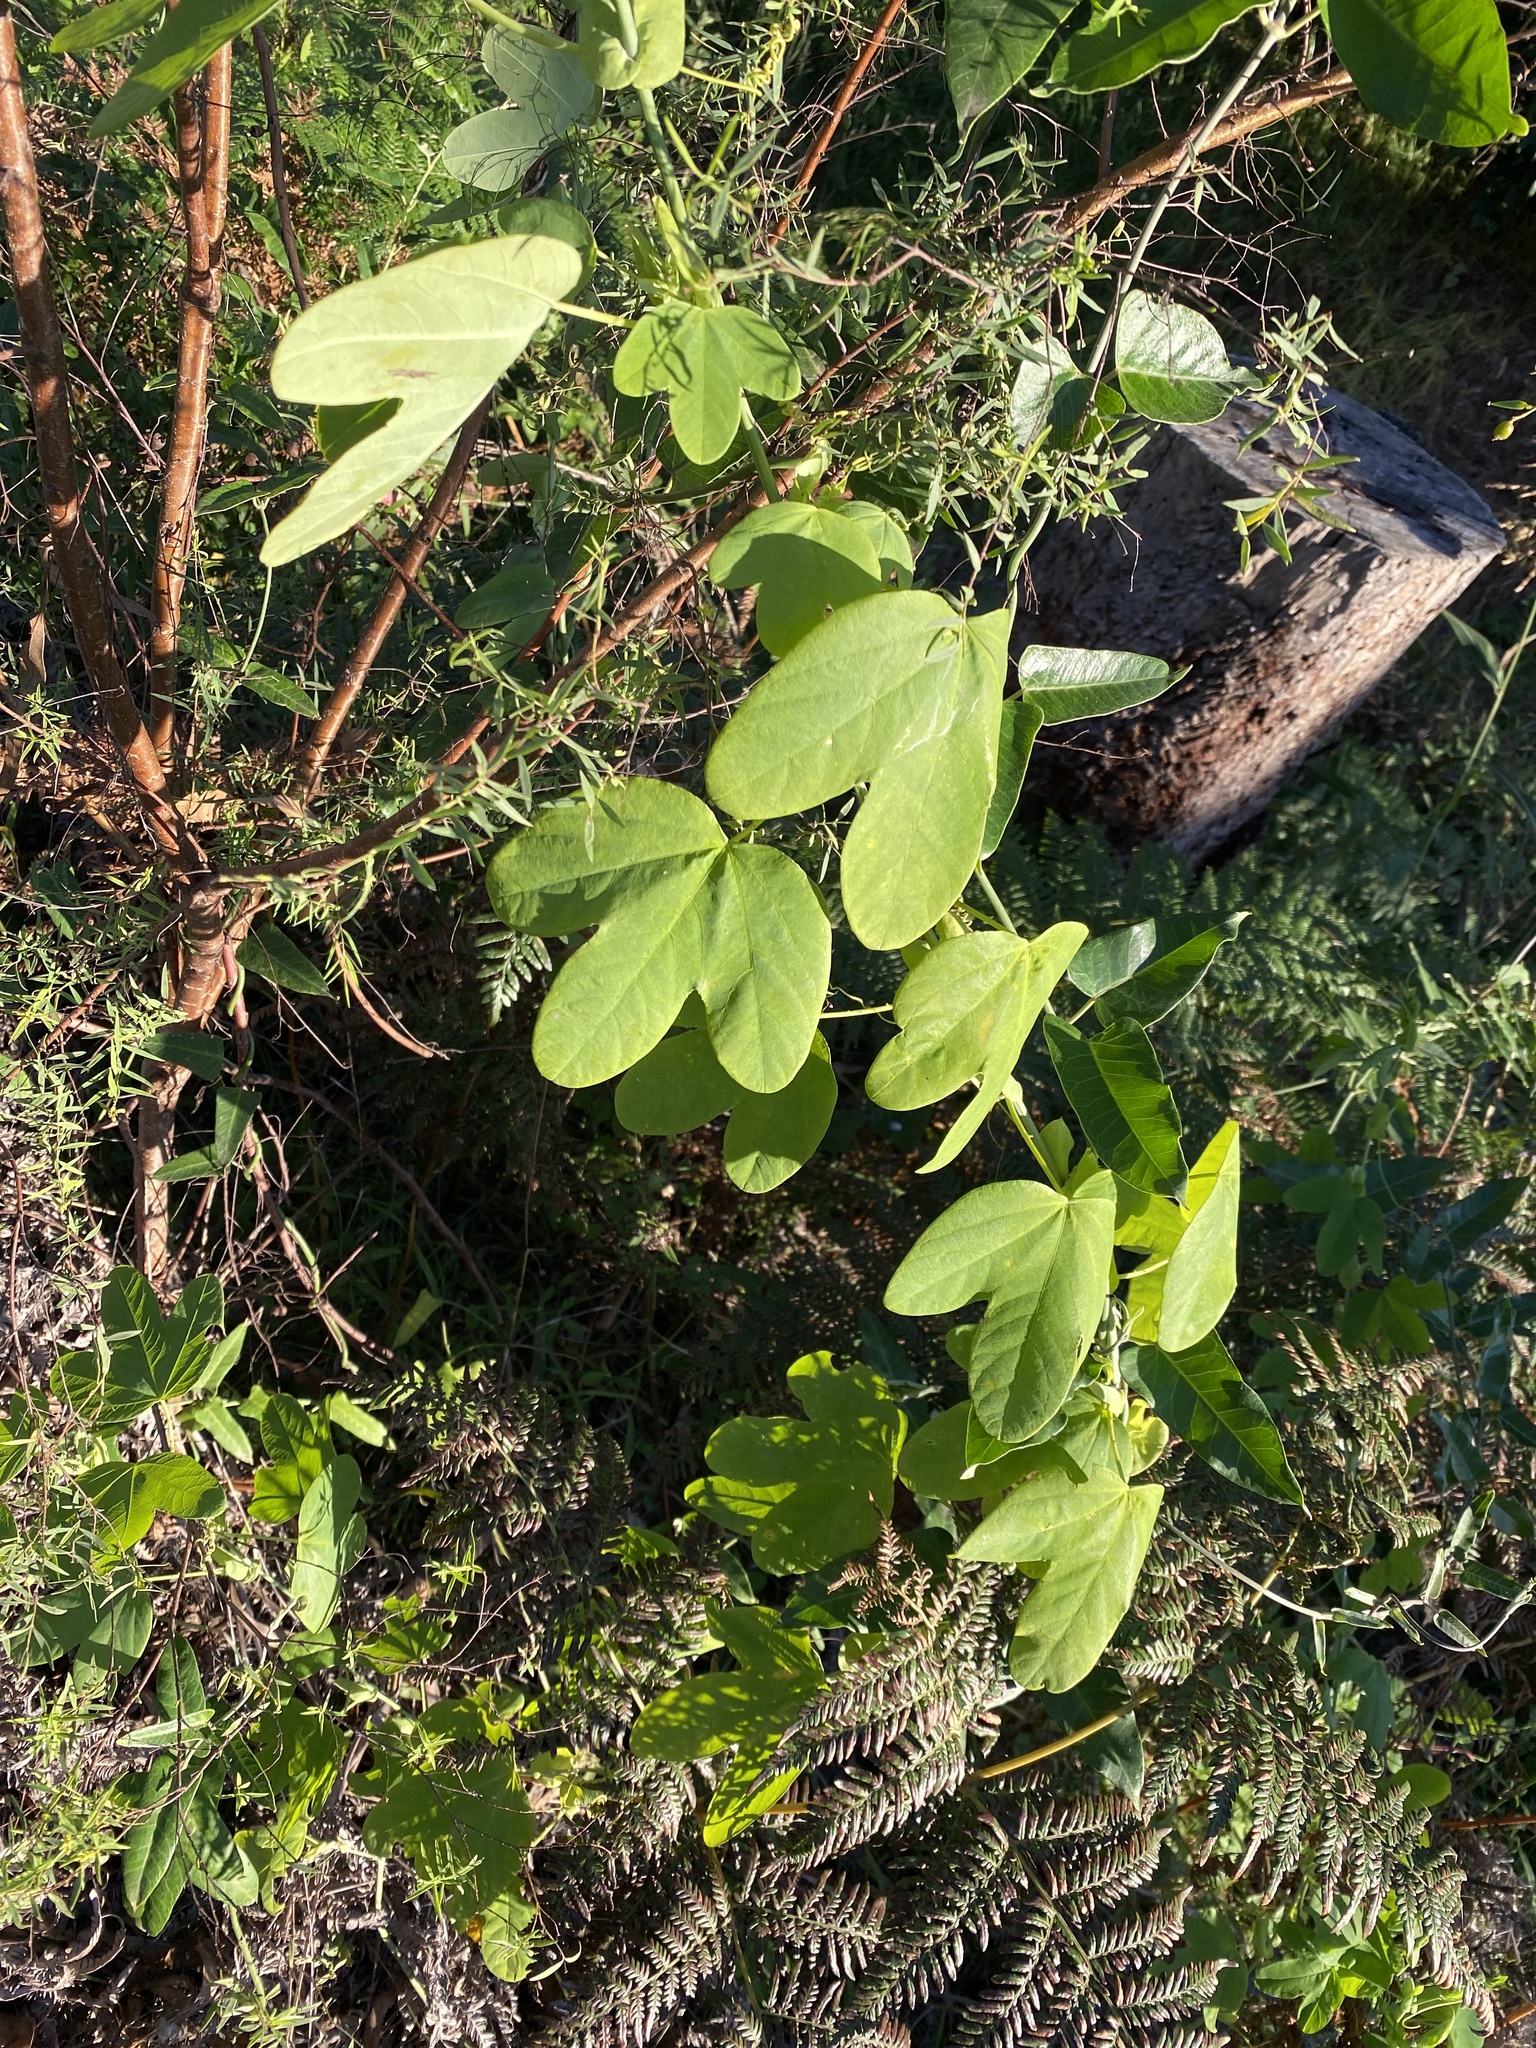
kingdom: Plantae
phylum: Tracheophyta
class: Magnoliopsida
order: Malpighiales
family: Passifloraceae
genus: Passiflora
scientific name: Passiflora subpeltata
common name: White passionflower
